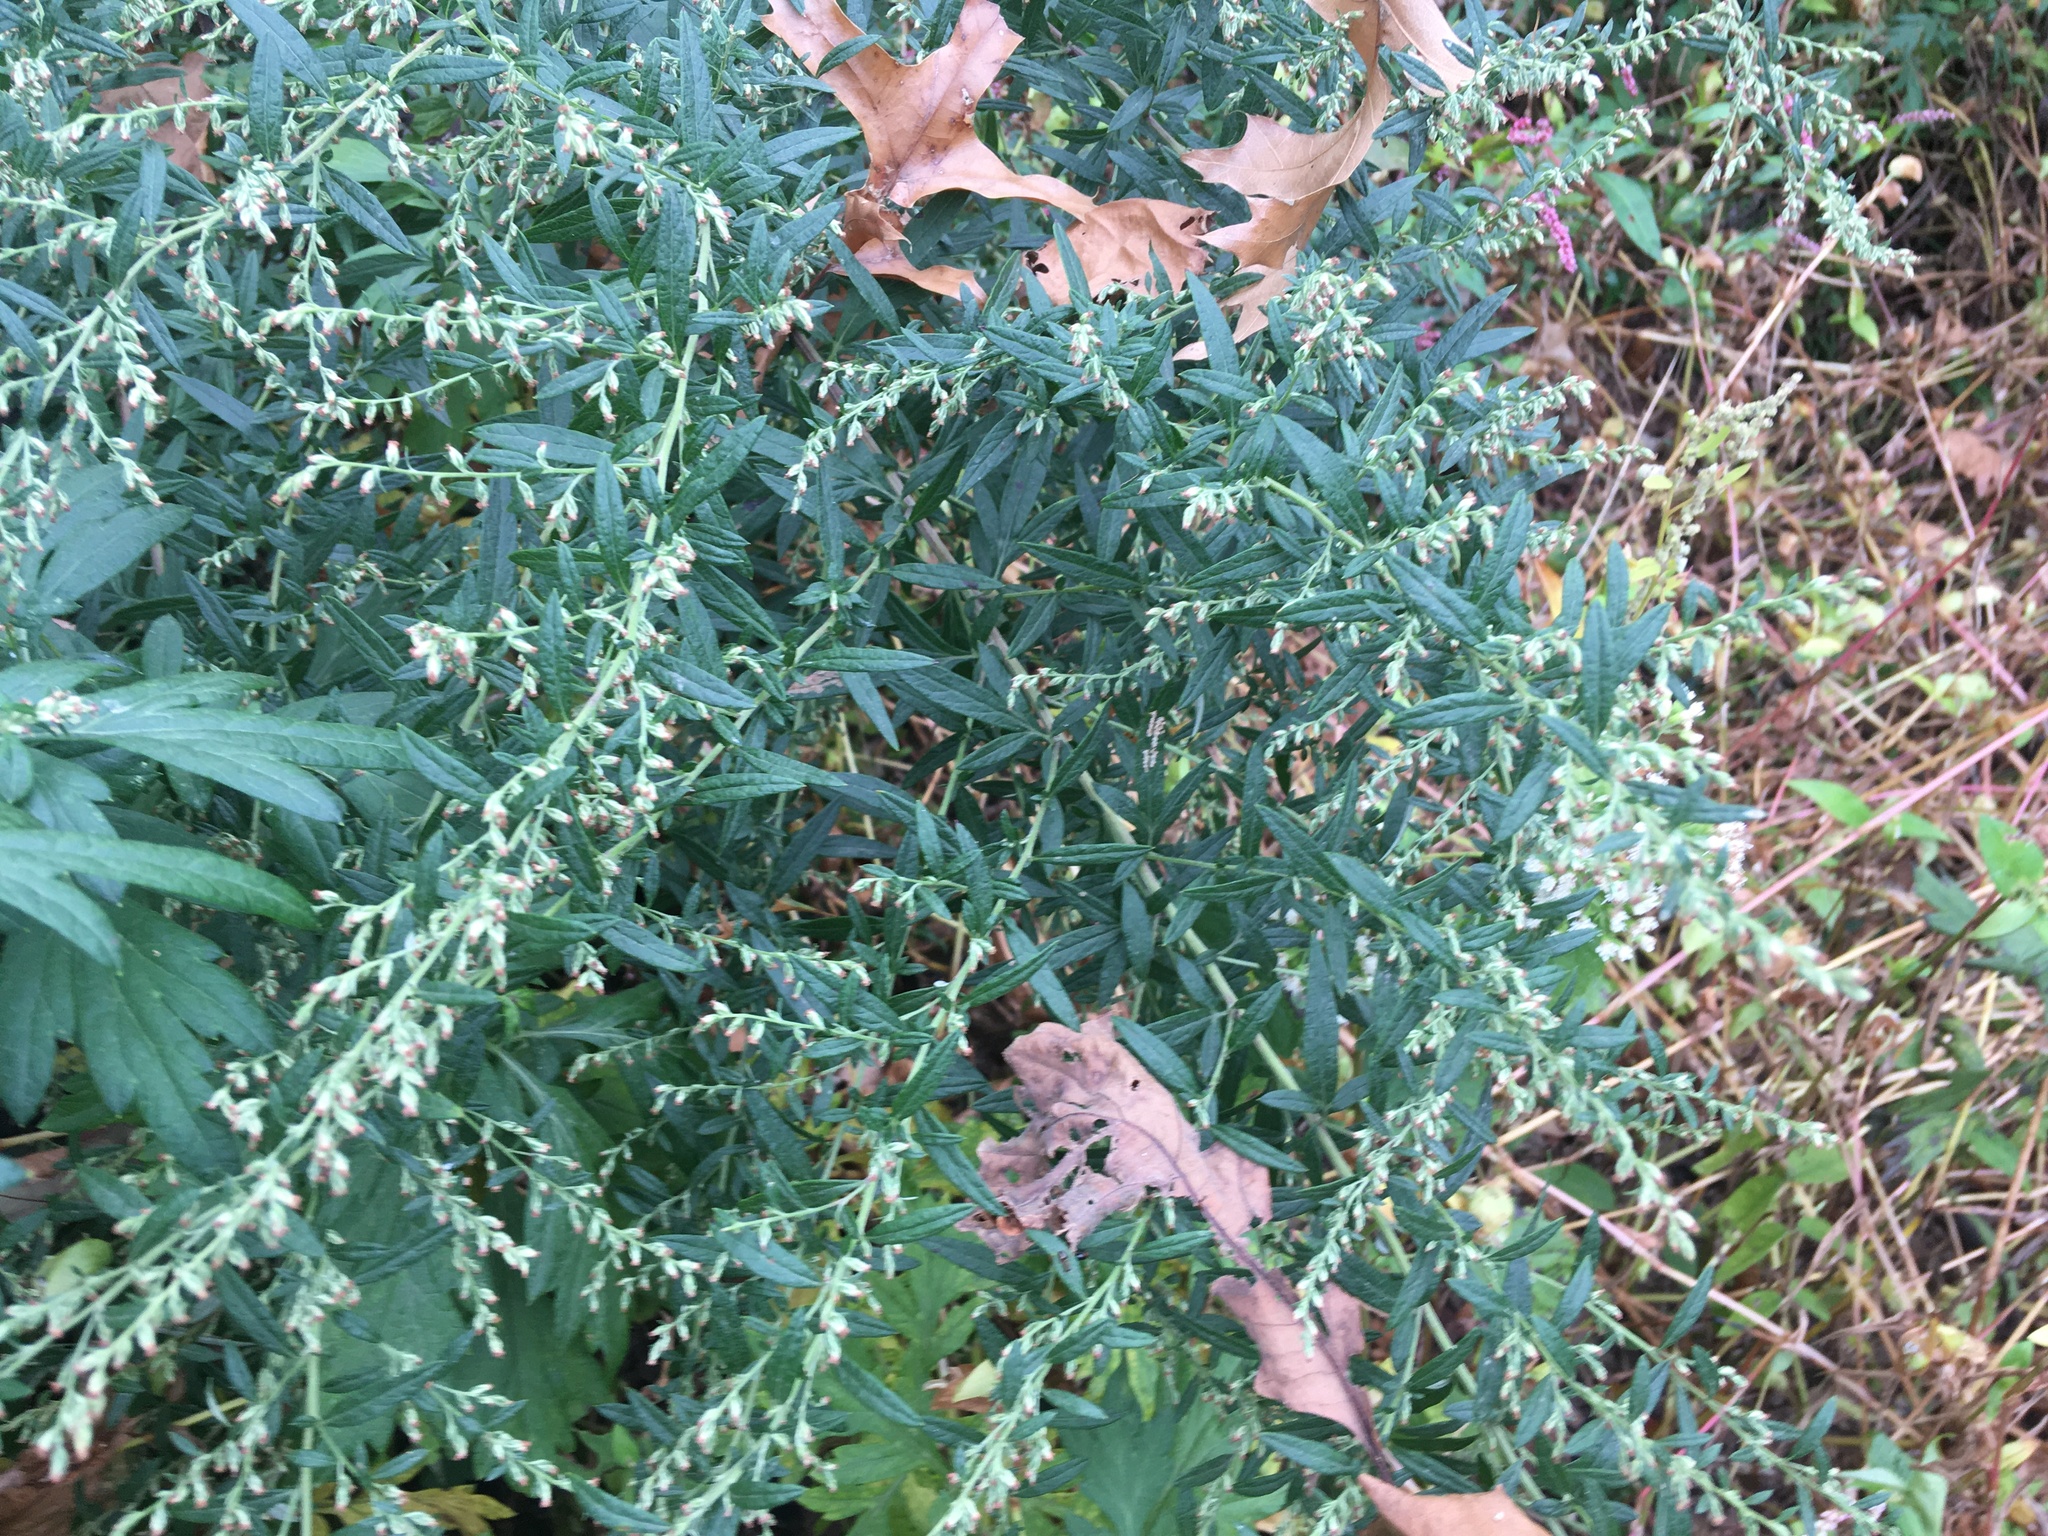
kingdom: Plantae
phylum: Tracheophyta
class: Magnoliopsida
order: Asterales
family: Asteraceae
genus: Artemisia
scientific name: Artemisia vulgaris
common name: Mugwort
